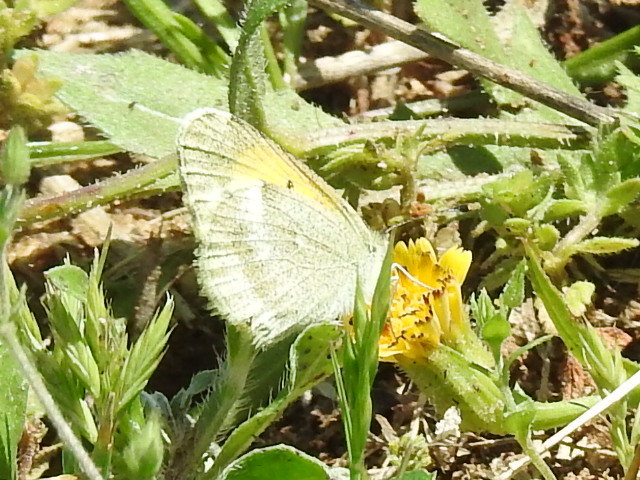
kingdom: Animalia
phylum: Arthropoda
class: Insecta
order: Lepidoptera
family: Pieridae
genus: Nathalis
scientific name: Nathalis iole
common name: Dainty sulphur
